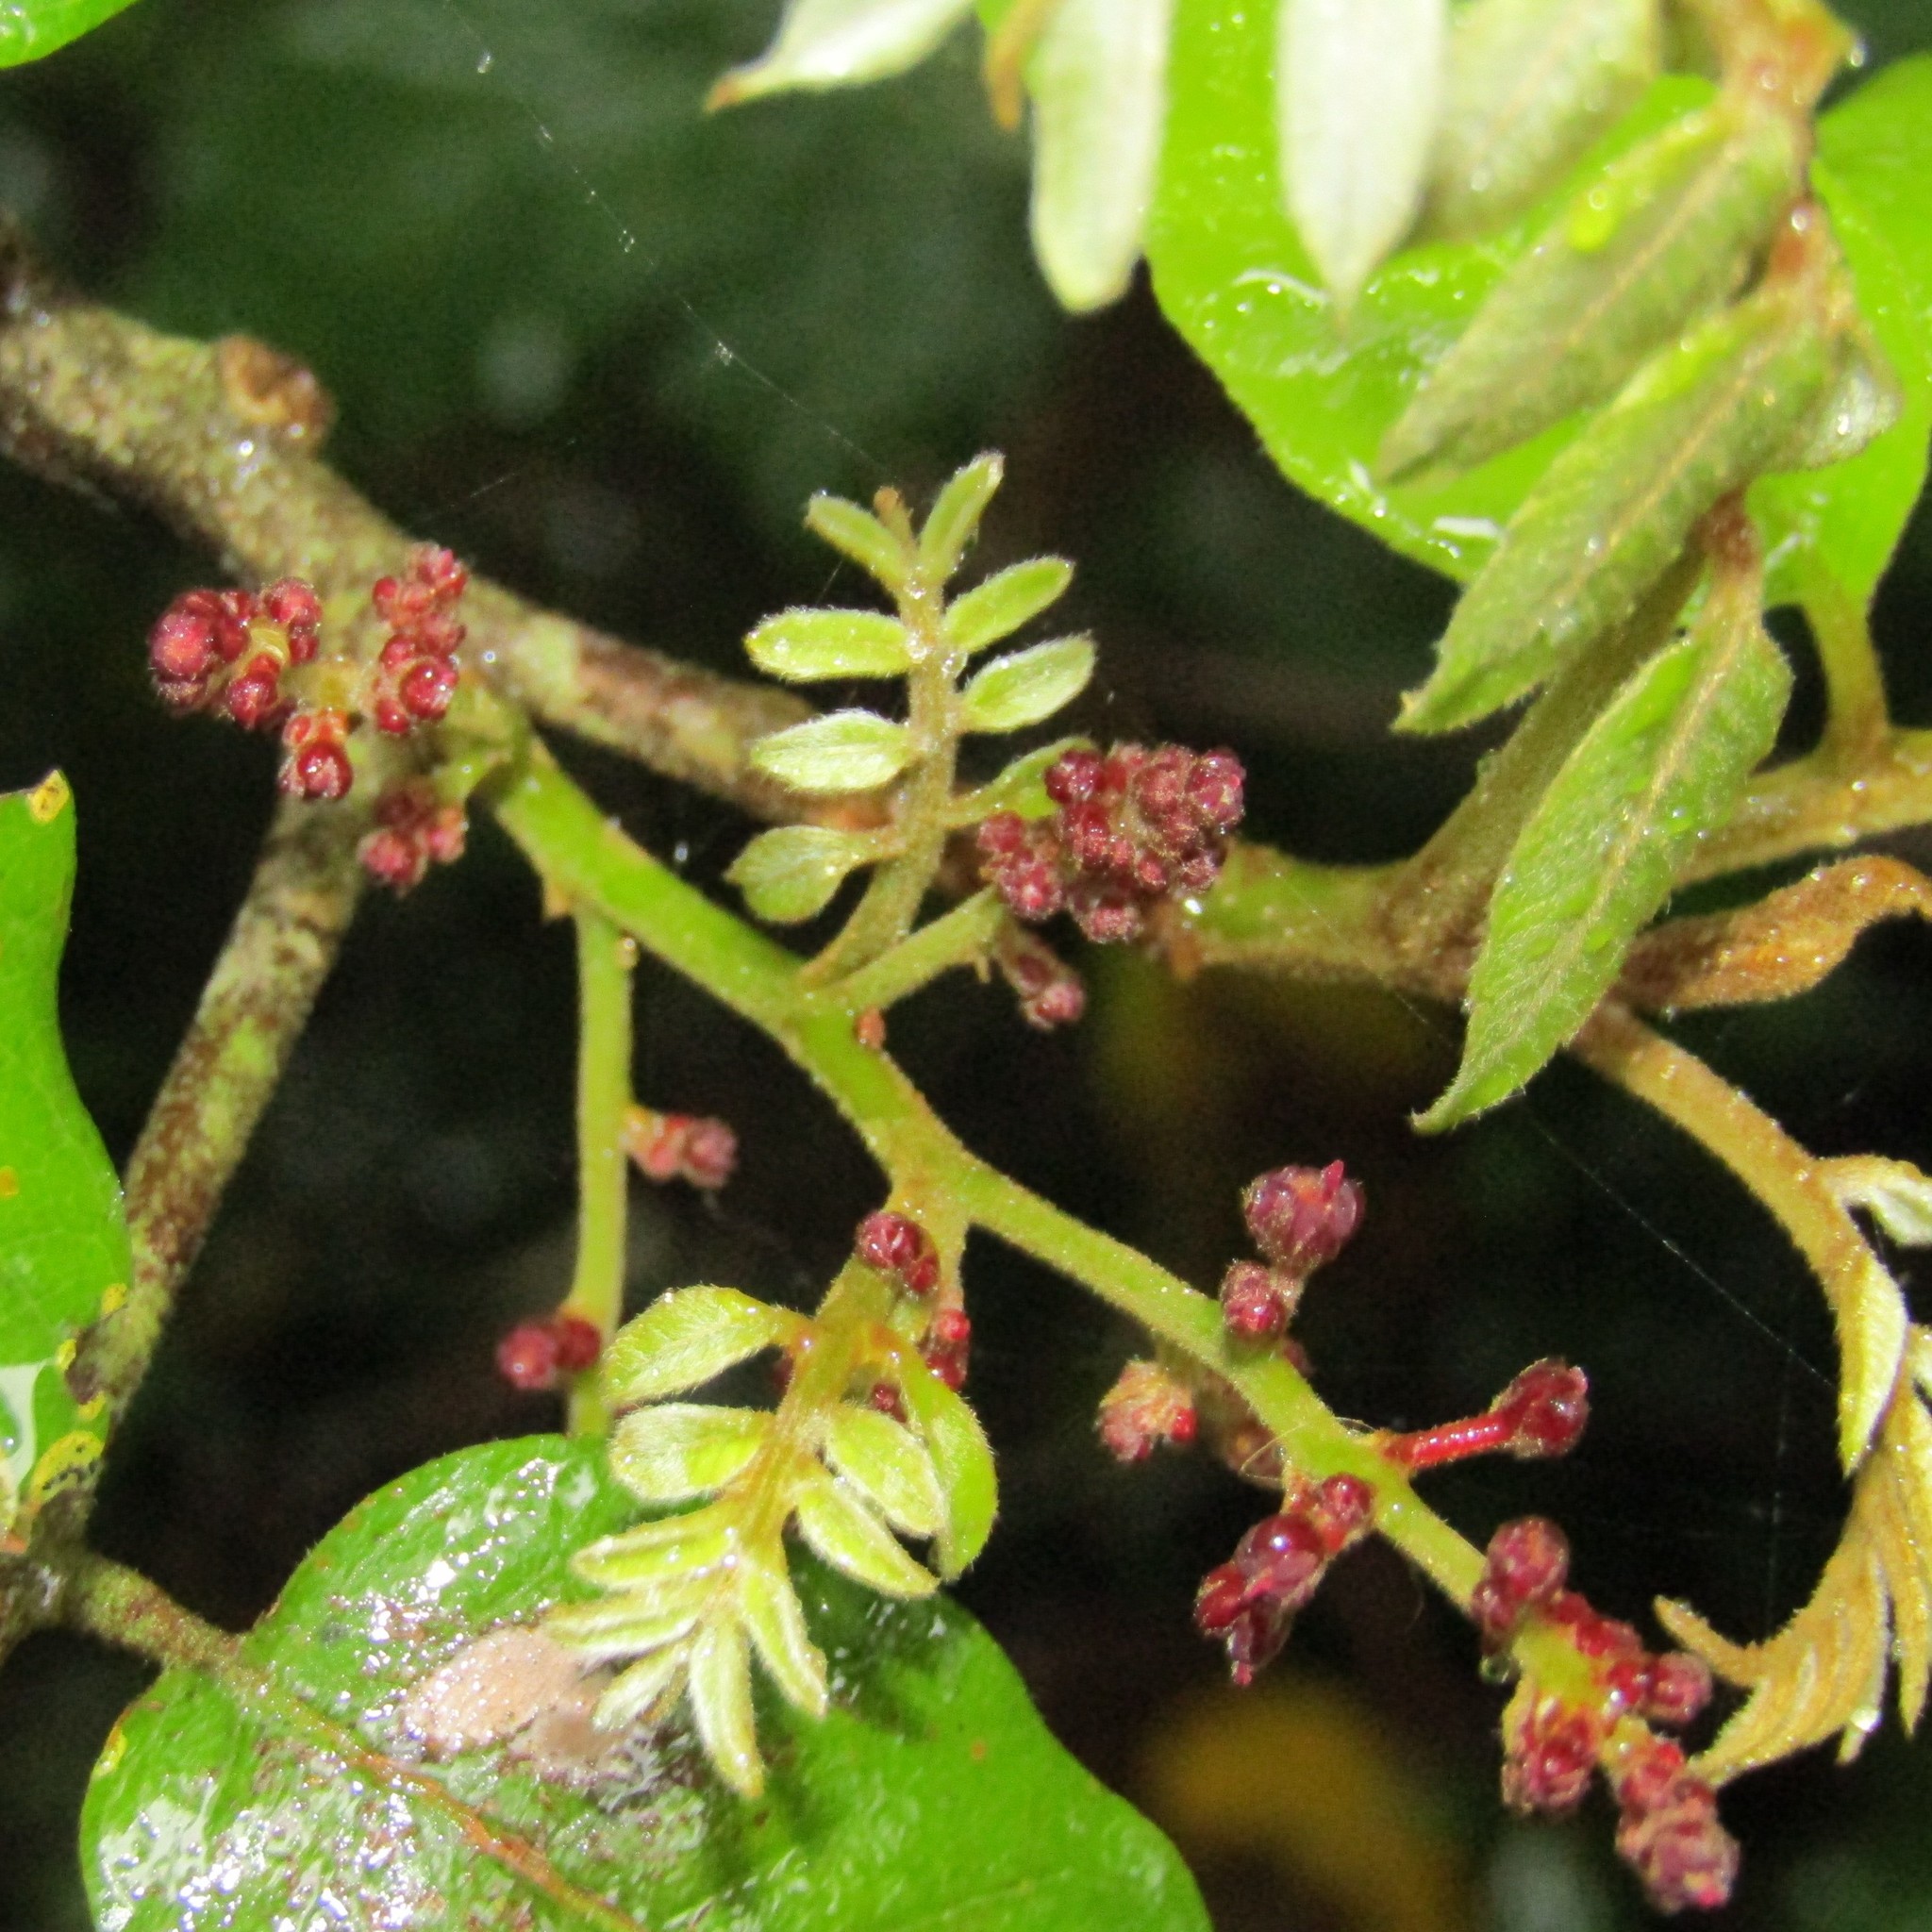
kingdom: Plantae
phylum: Tracheophyta
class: Magnoliopsida
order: Sapindales
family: Sapindaceae
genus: Alectryon
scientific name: Alectryon excelsus
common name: Three kings titoki
